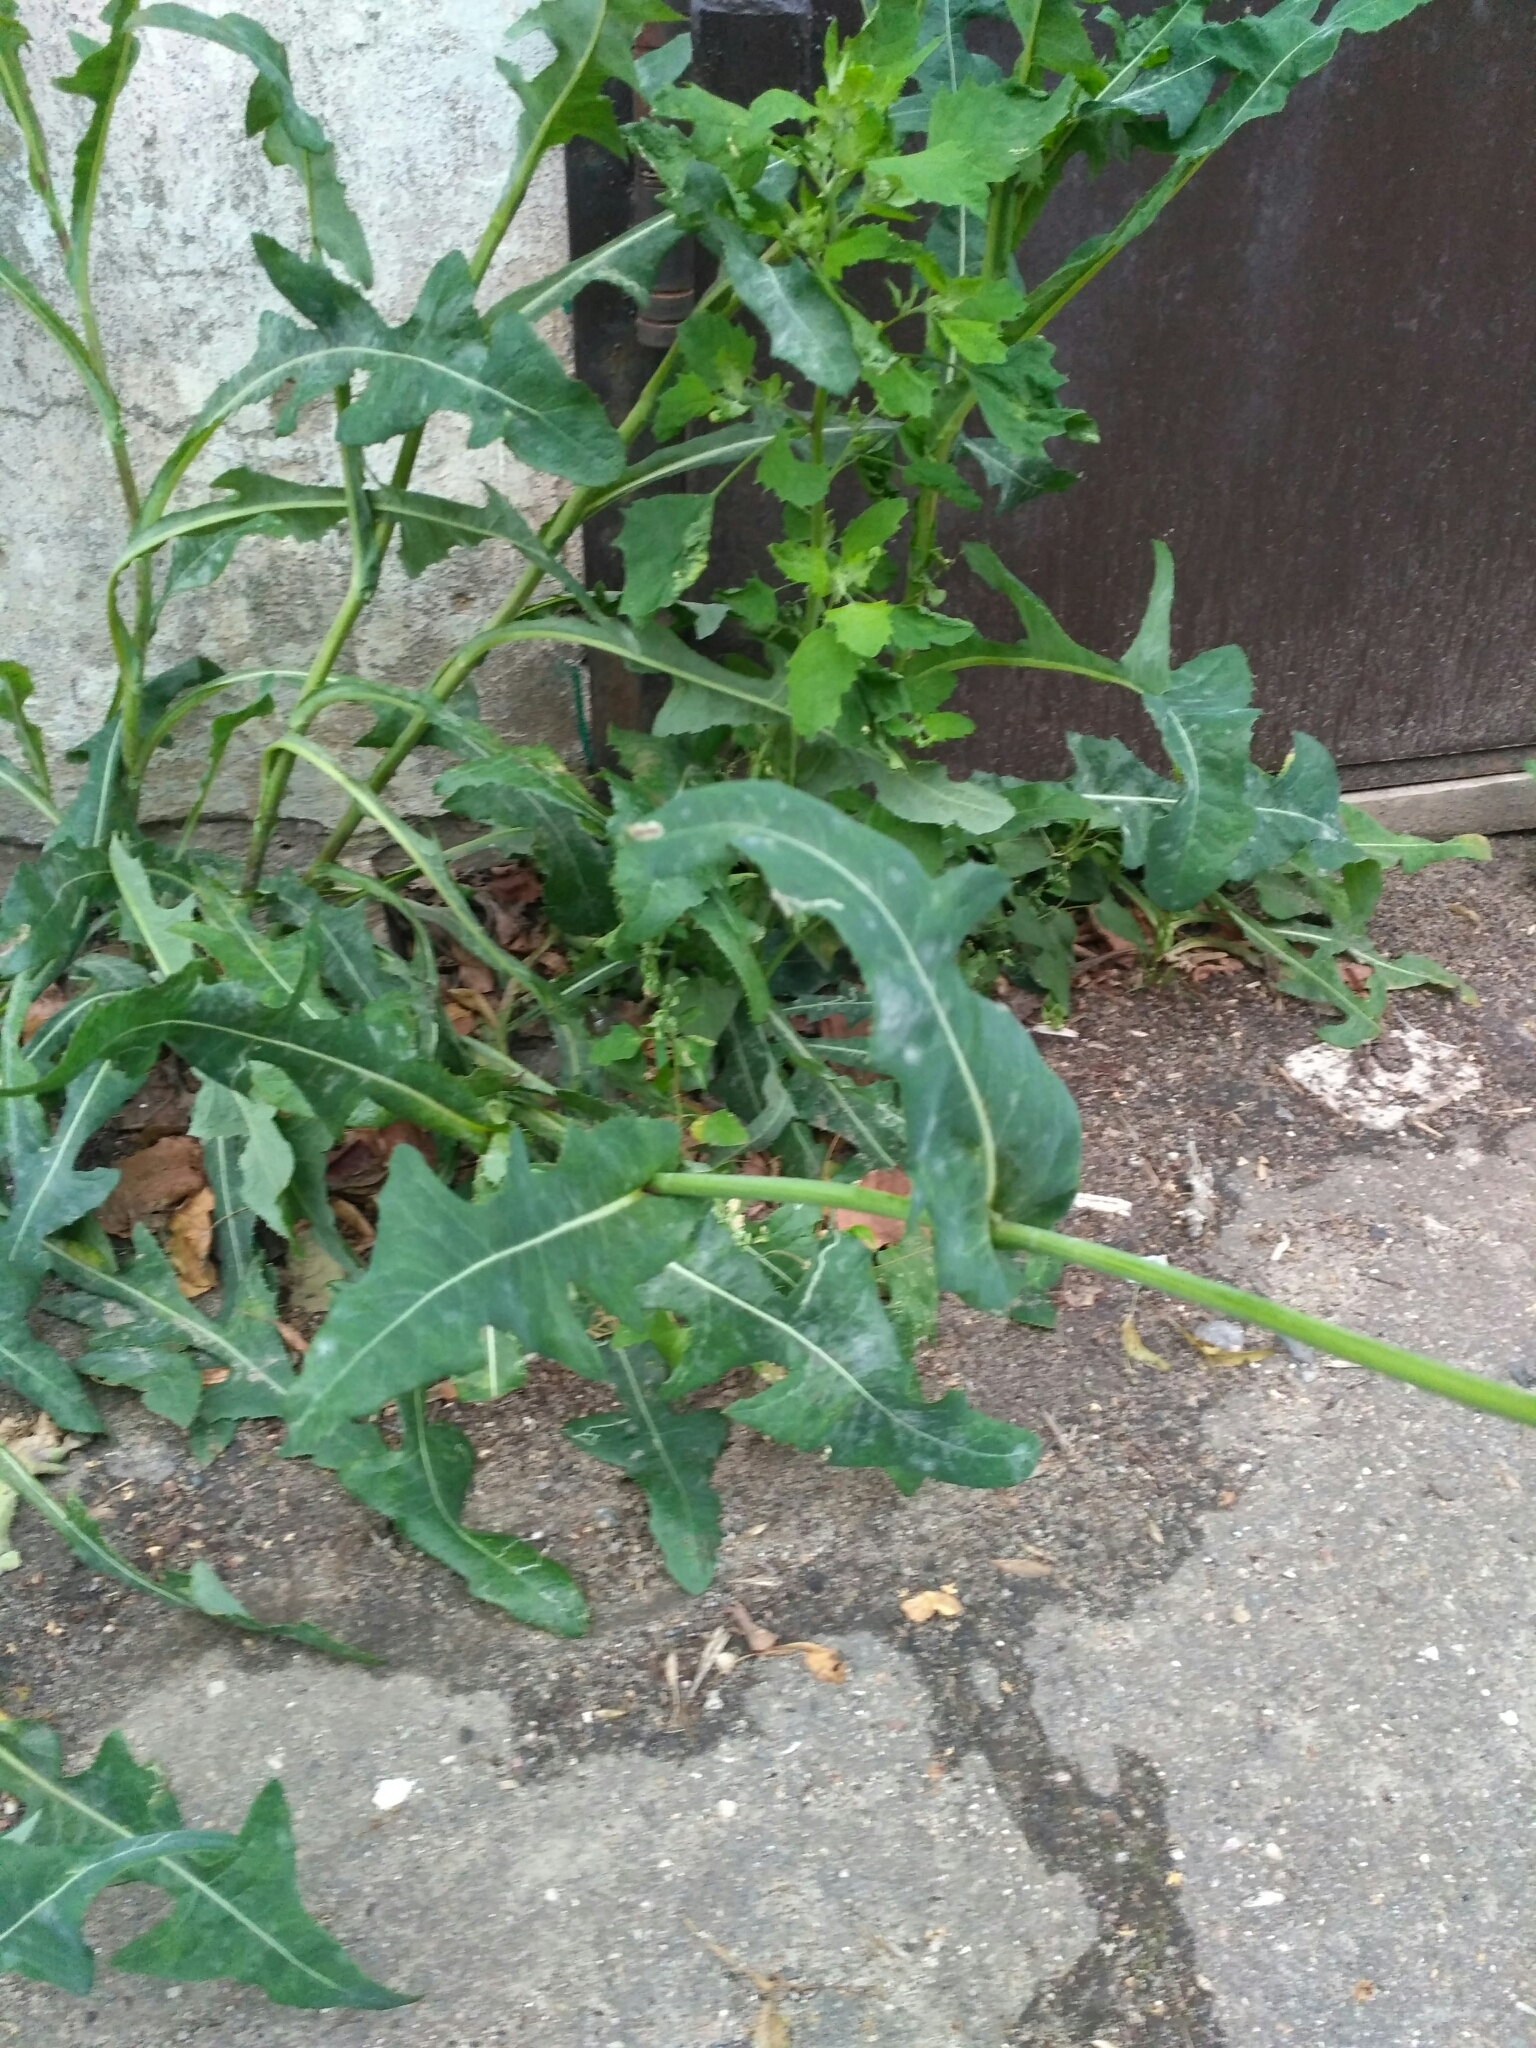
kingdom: Plantae
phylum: Tracheophyta
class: Magnoliopsida
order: Asterales
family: Asteraceae
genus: Sonchus
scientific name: Sonchus arvensis
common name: Perennial sow-thistle
